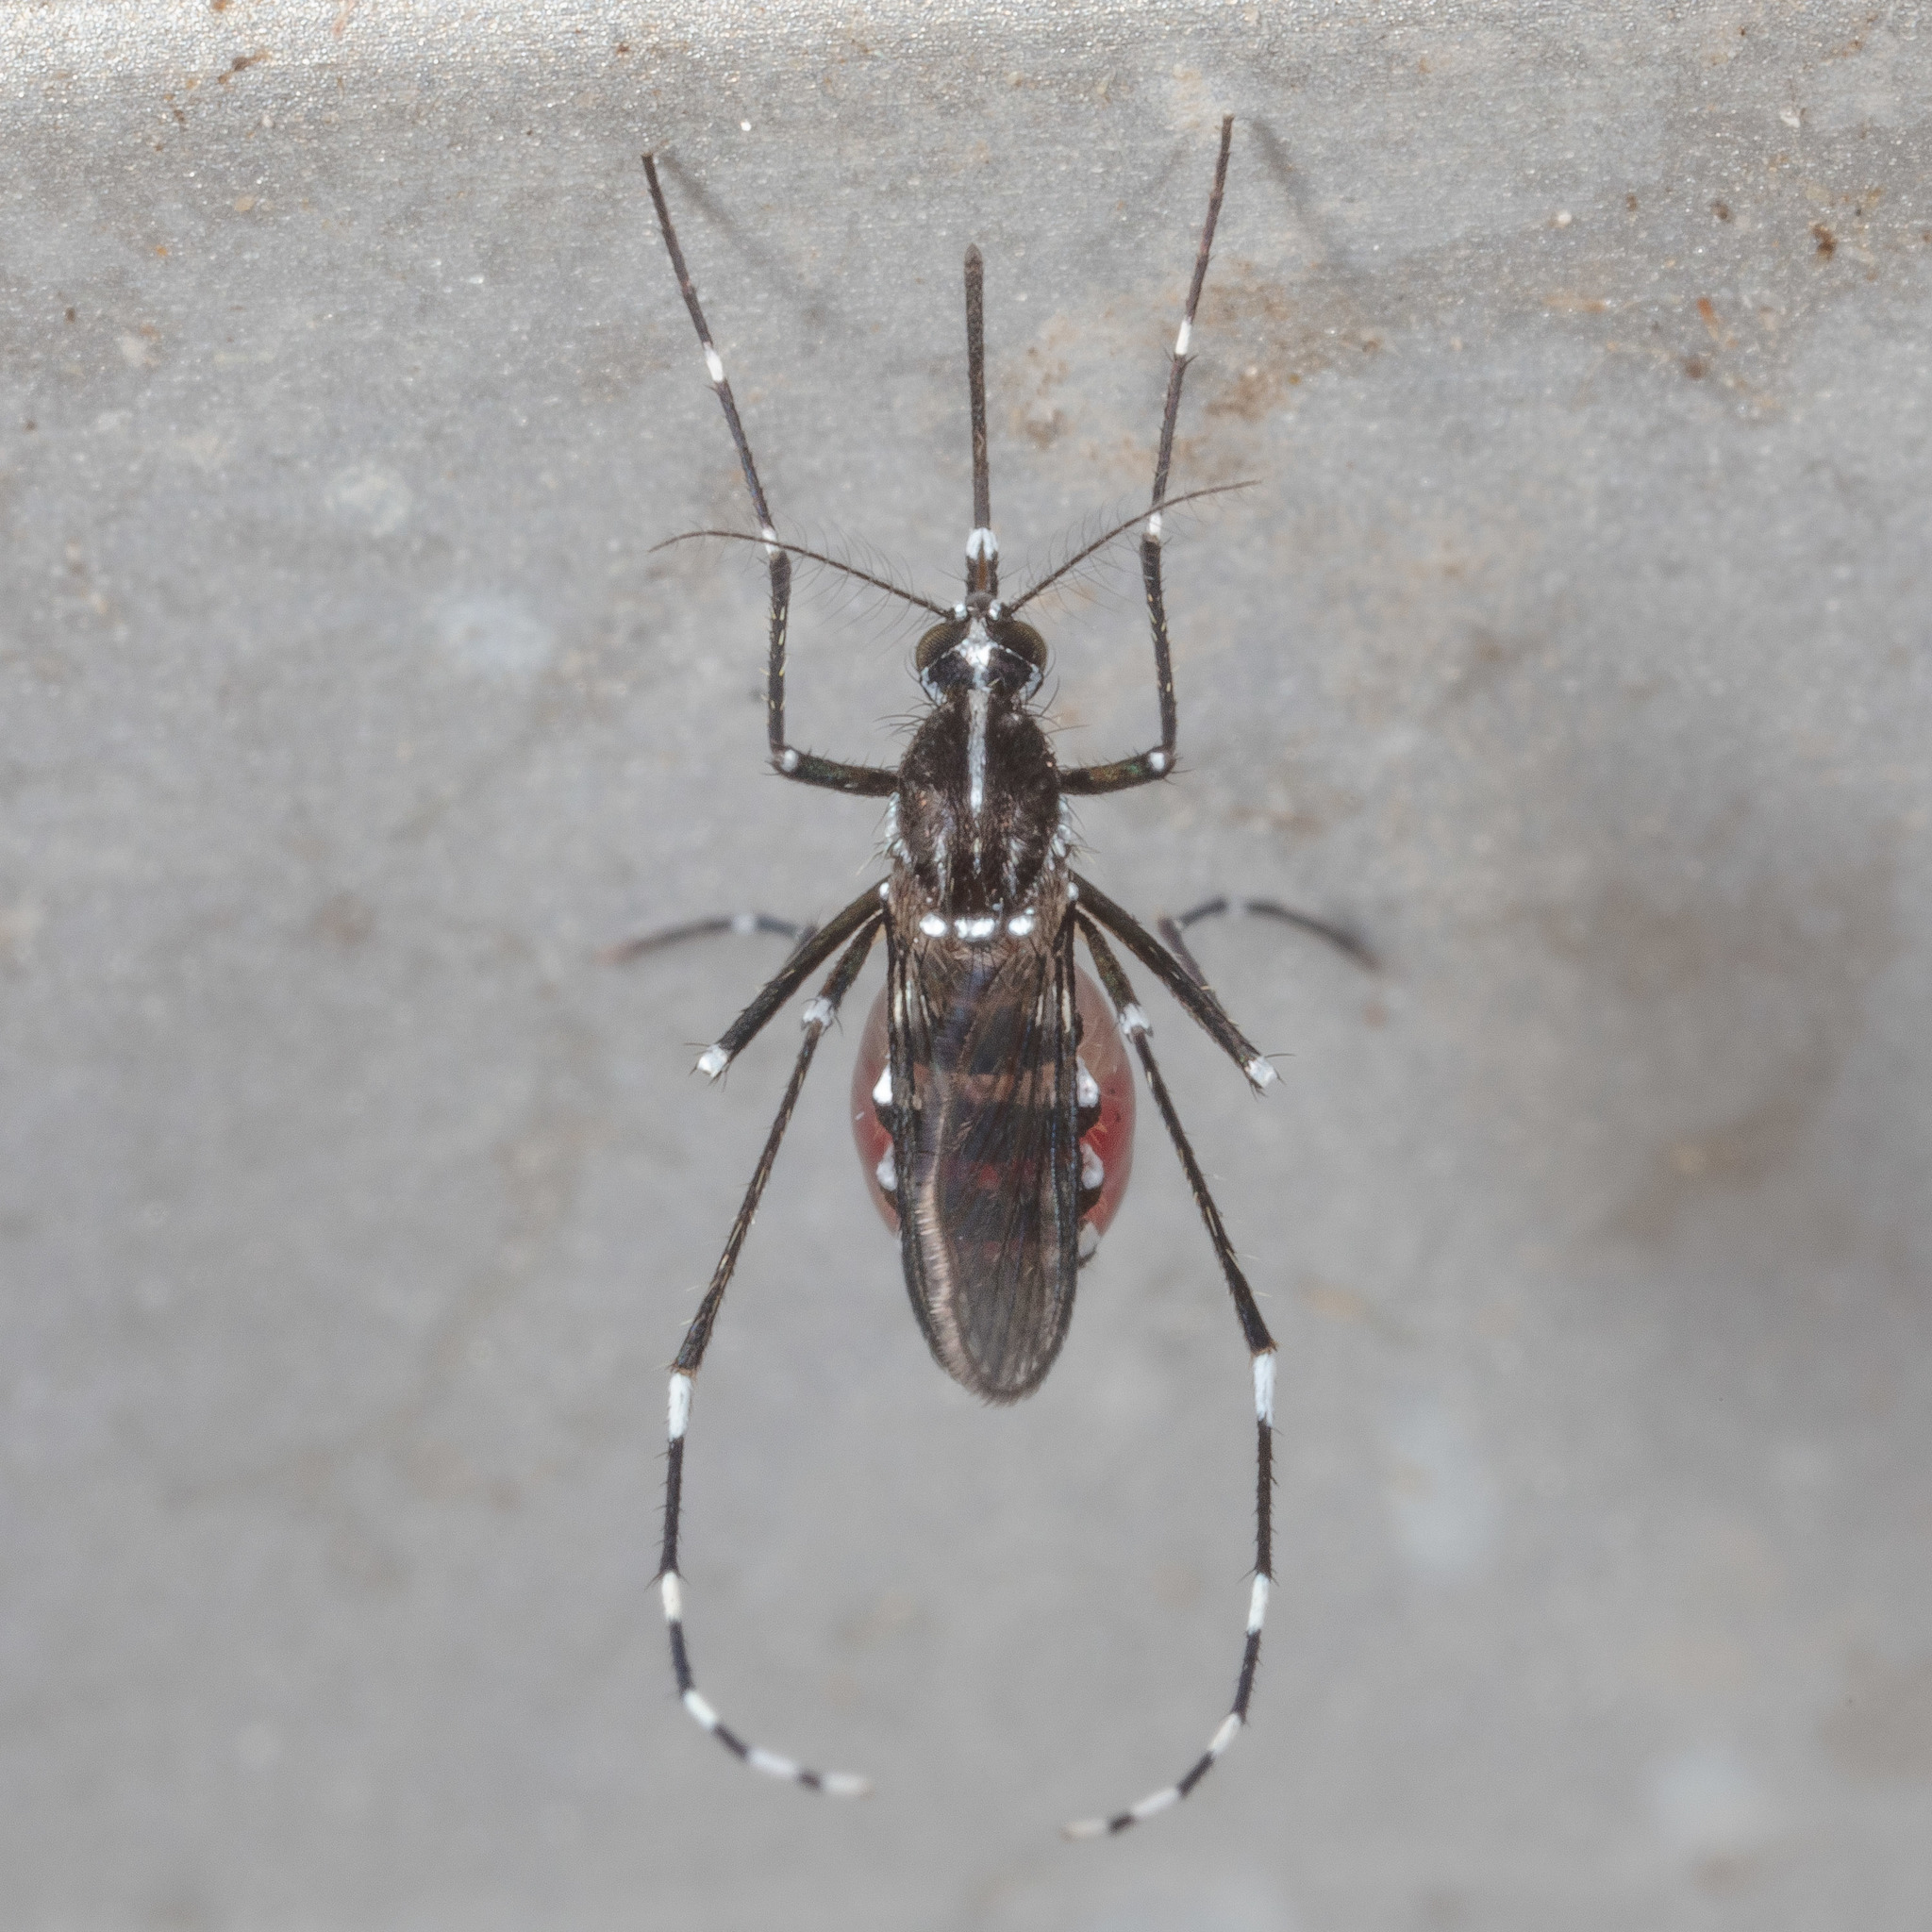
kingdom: Animalia
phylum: Arthropoda
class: Insecta
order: Diptera
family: Culicidae
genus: Aedes
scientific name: Aedes albopictus
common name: Tiger mosquito
